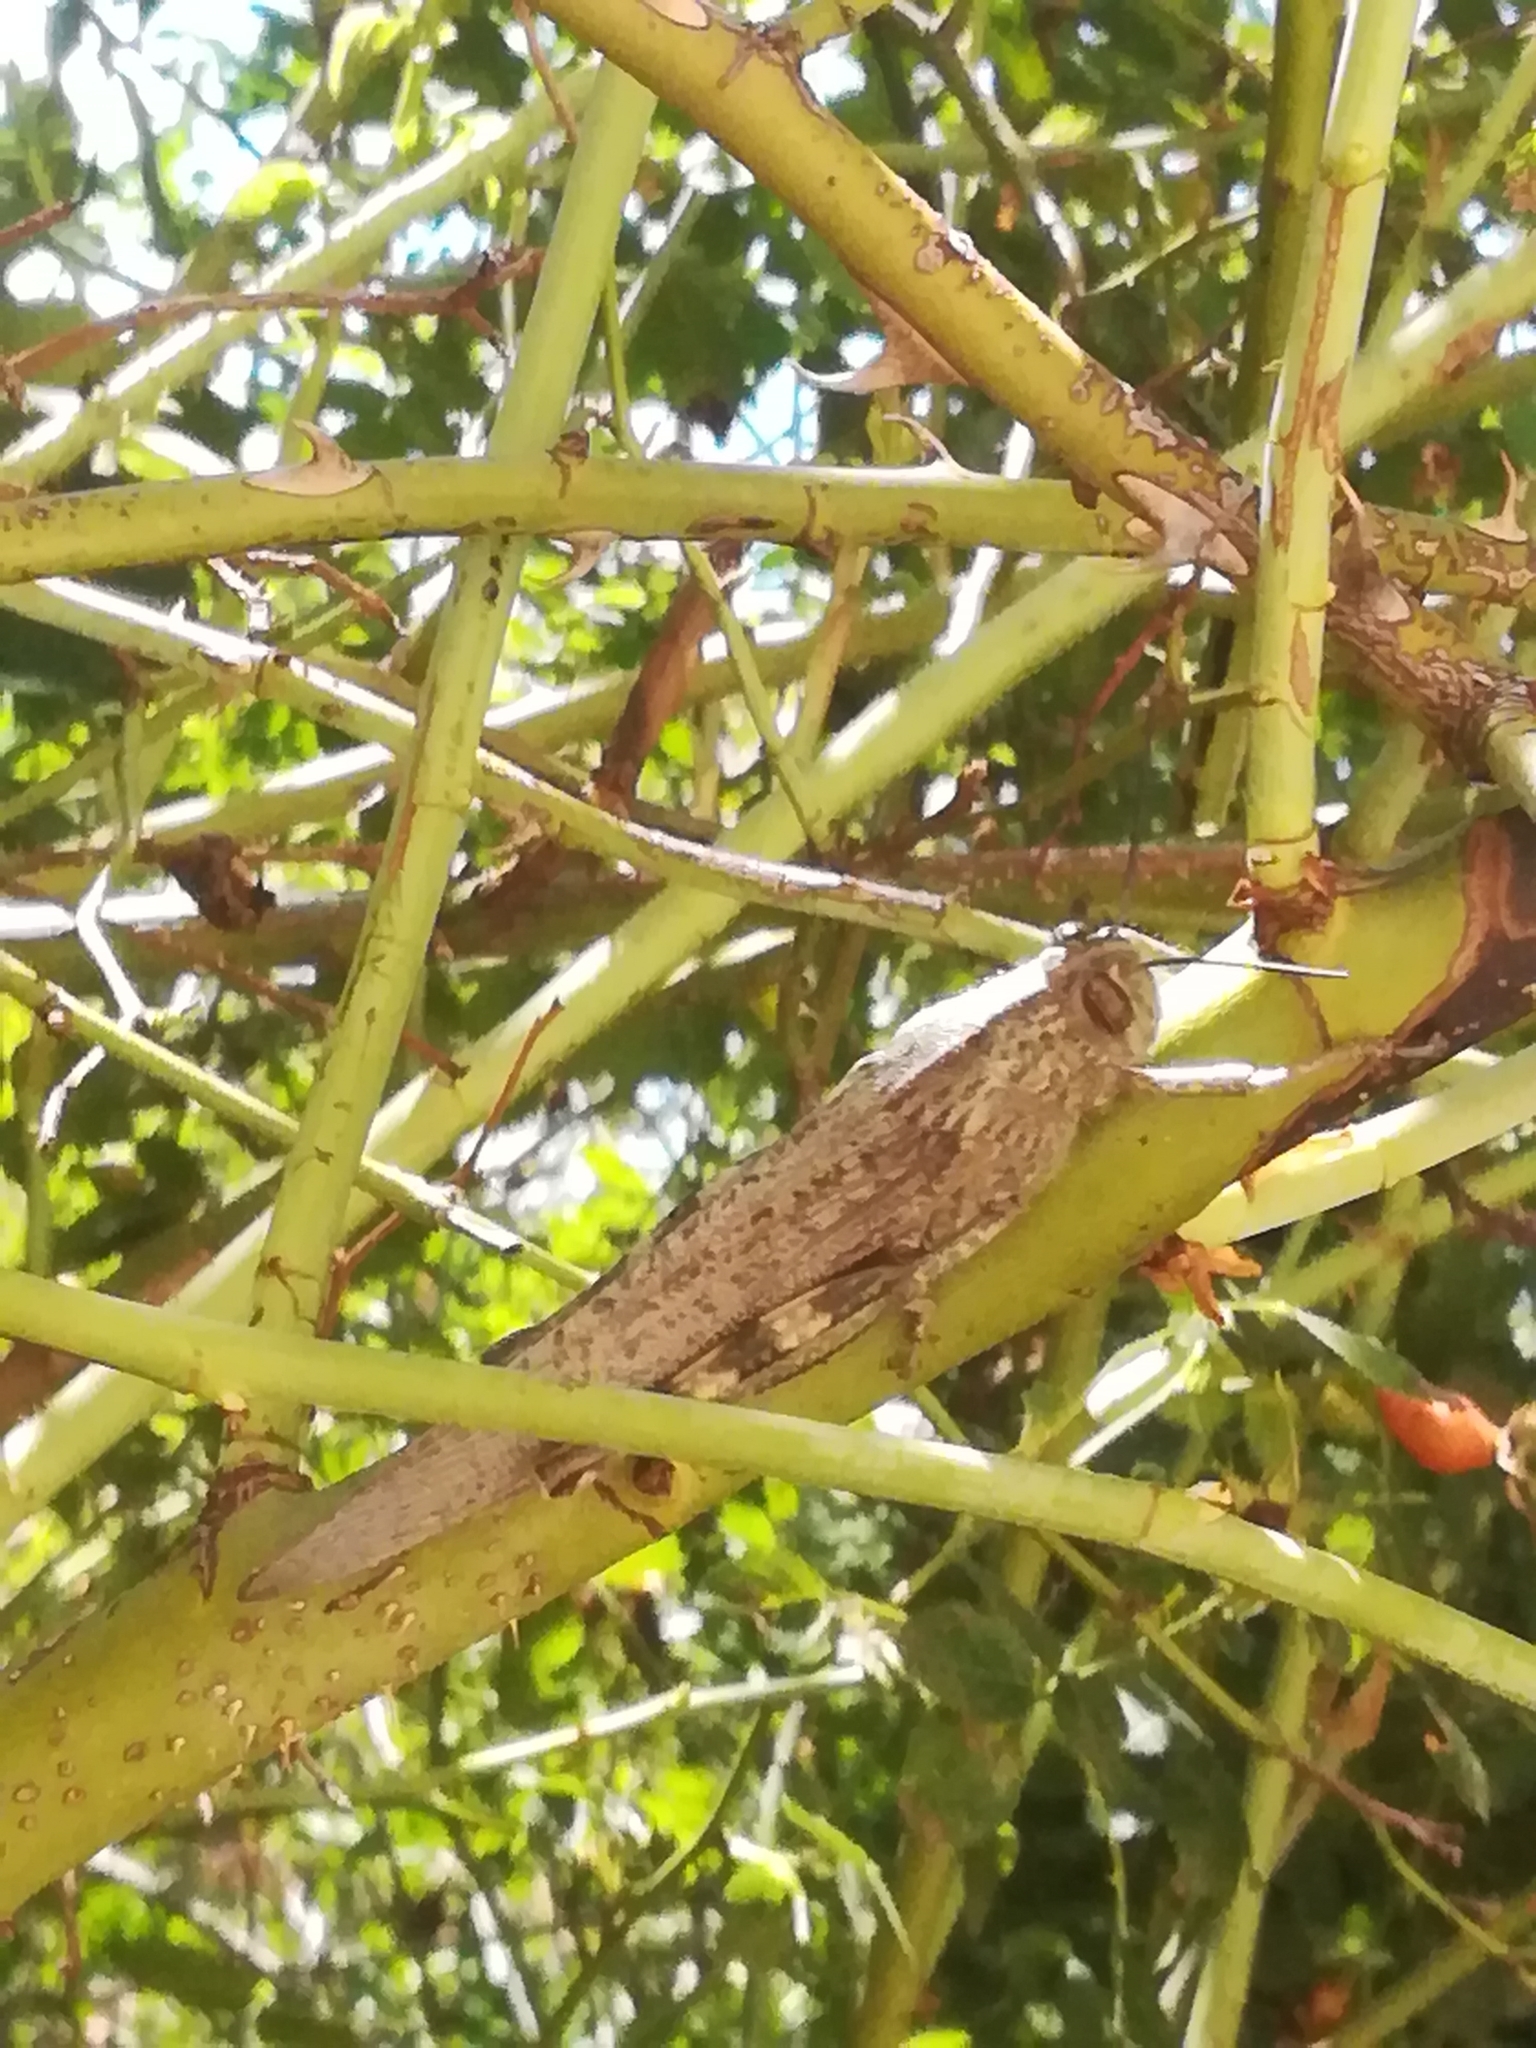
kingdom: Animalia
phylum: Arthropoda
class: Insecta
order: Orthoptera
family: Acrididae
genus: Anacridium
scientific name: Anacridium aegyptium
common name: Egyptian grasshopper
